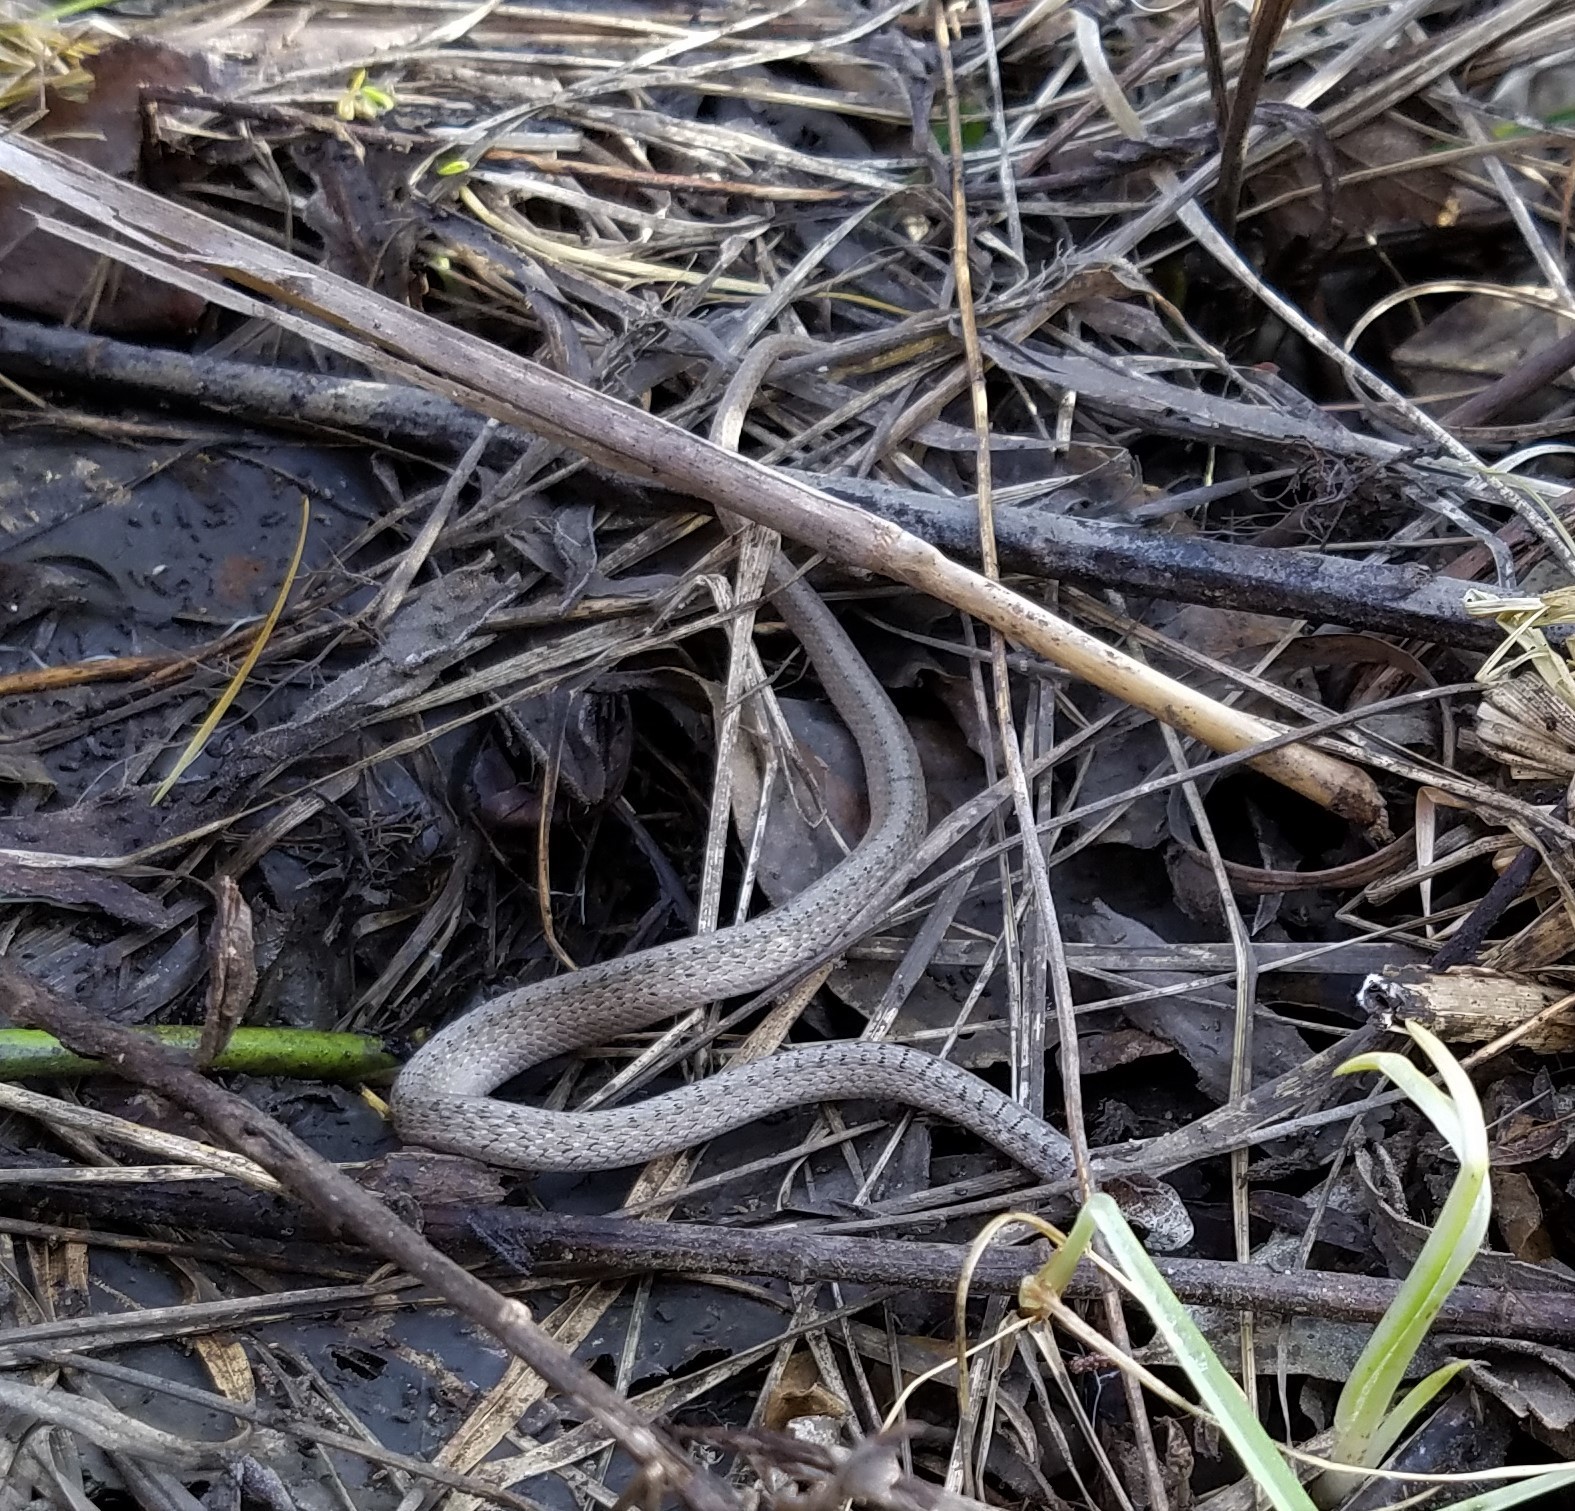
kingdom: Animalia
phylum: Chordata
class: Squamata
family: Colubridae
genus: Storeria
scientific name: Storeria dekayi
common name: (dekay’s) brown snake
